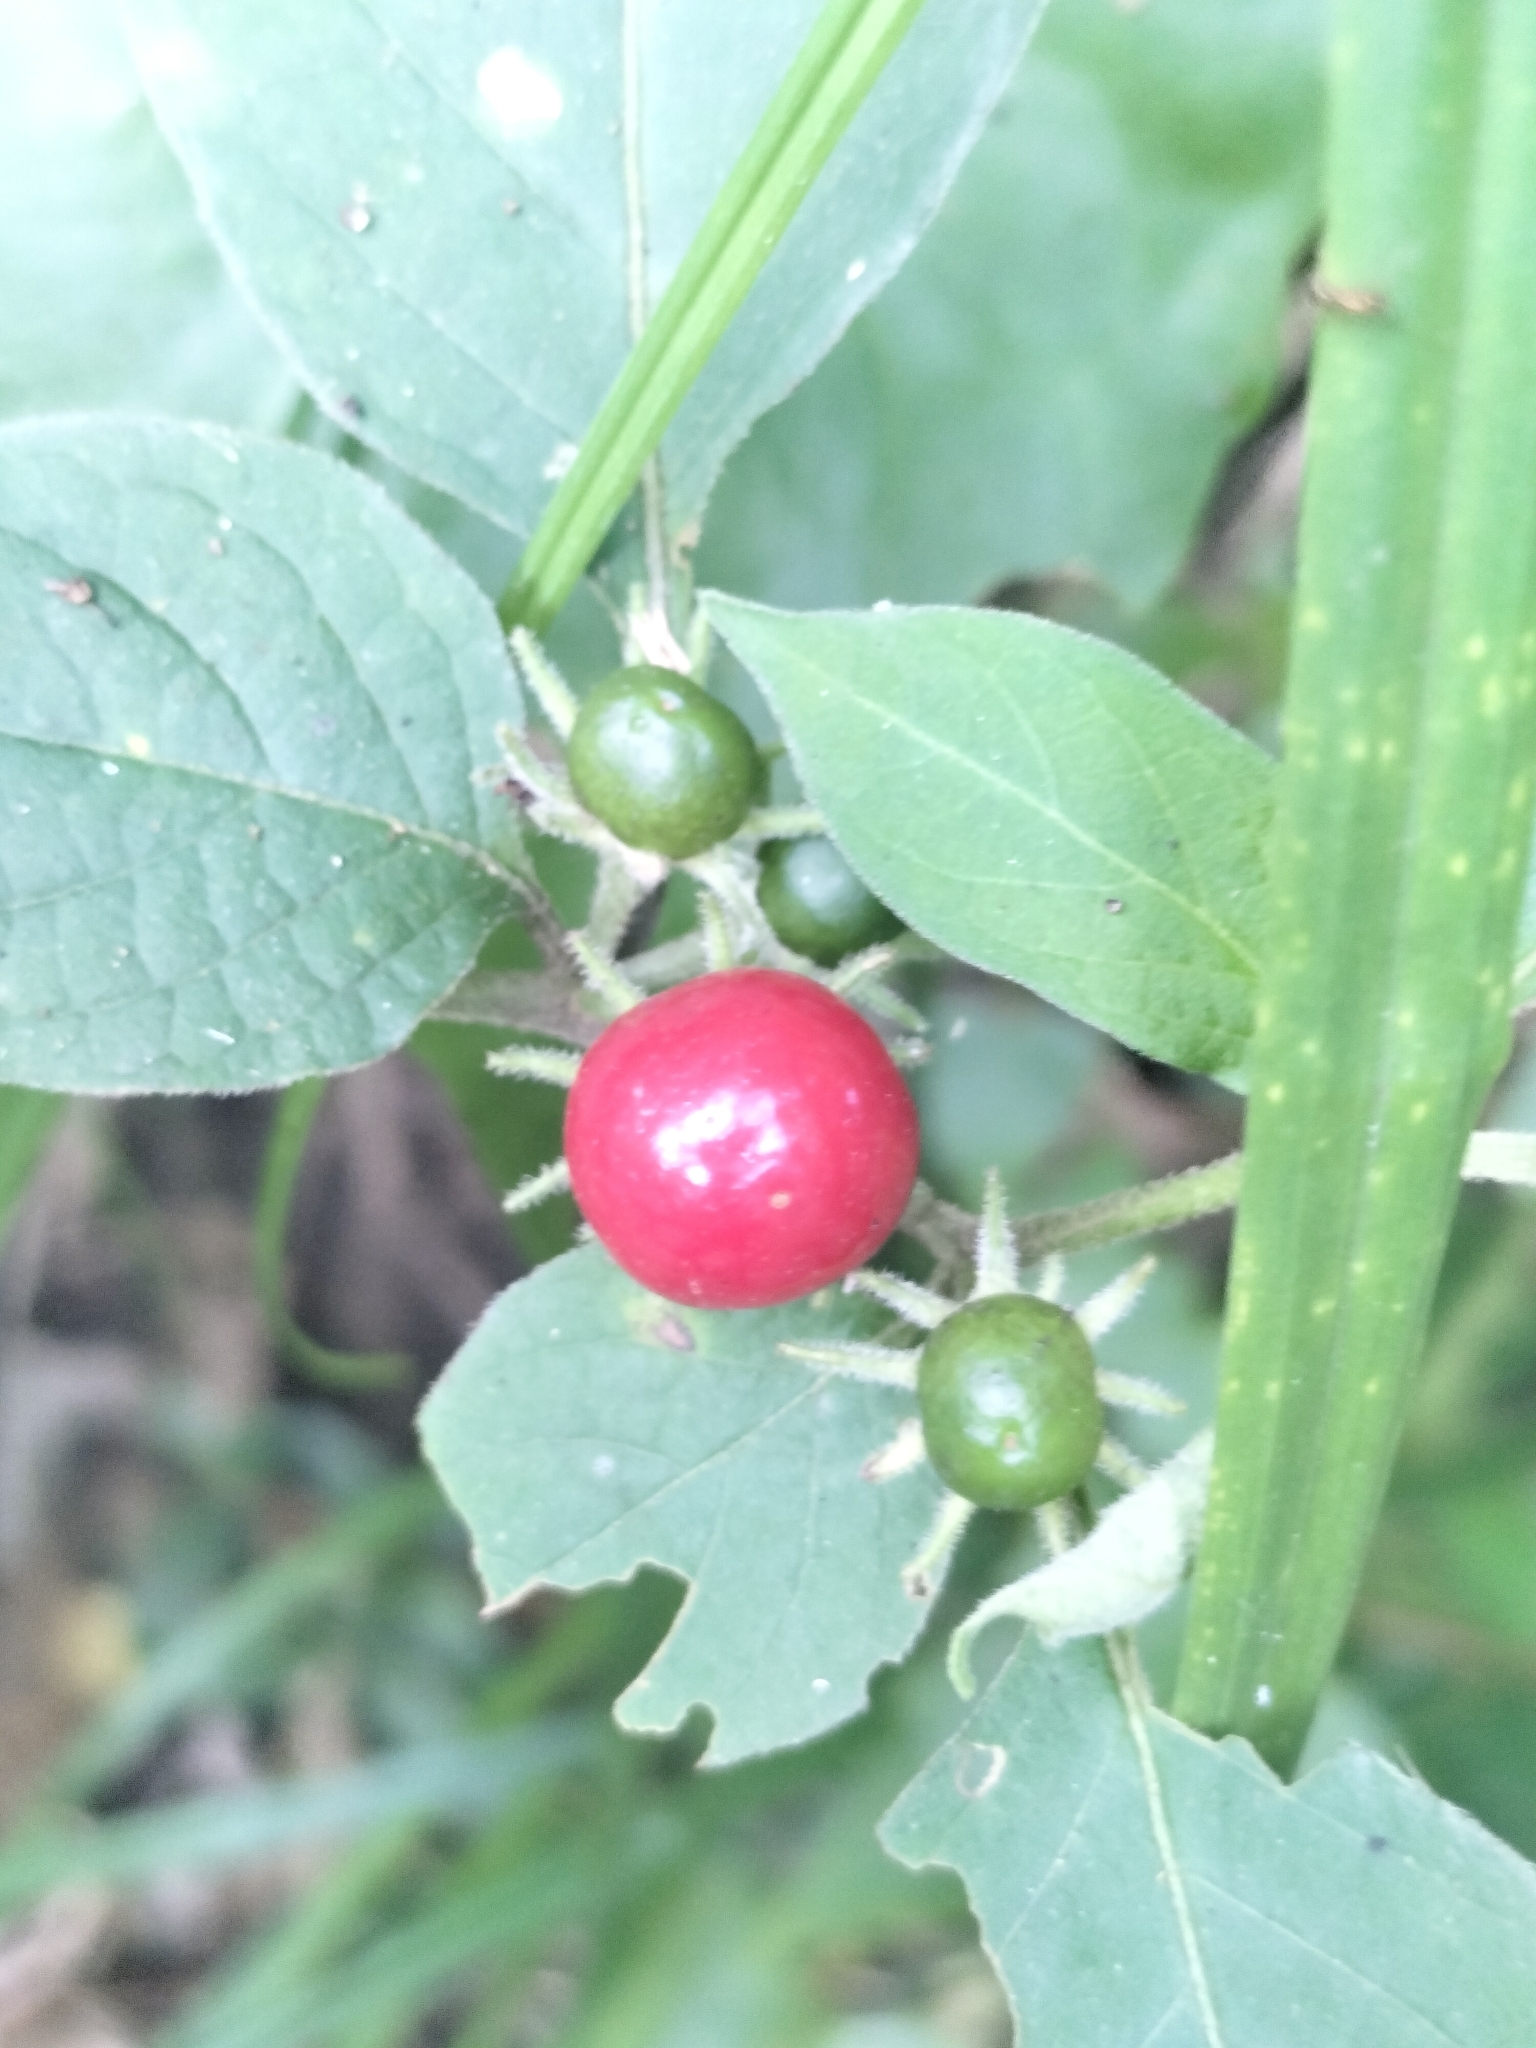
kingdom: Plantae
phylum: Tracheophyta
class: Magnoliopsida
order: Solanales
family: Solanaceae
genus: Lycianthes
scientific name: Lycianthes biflora
